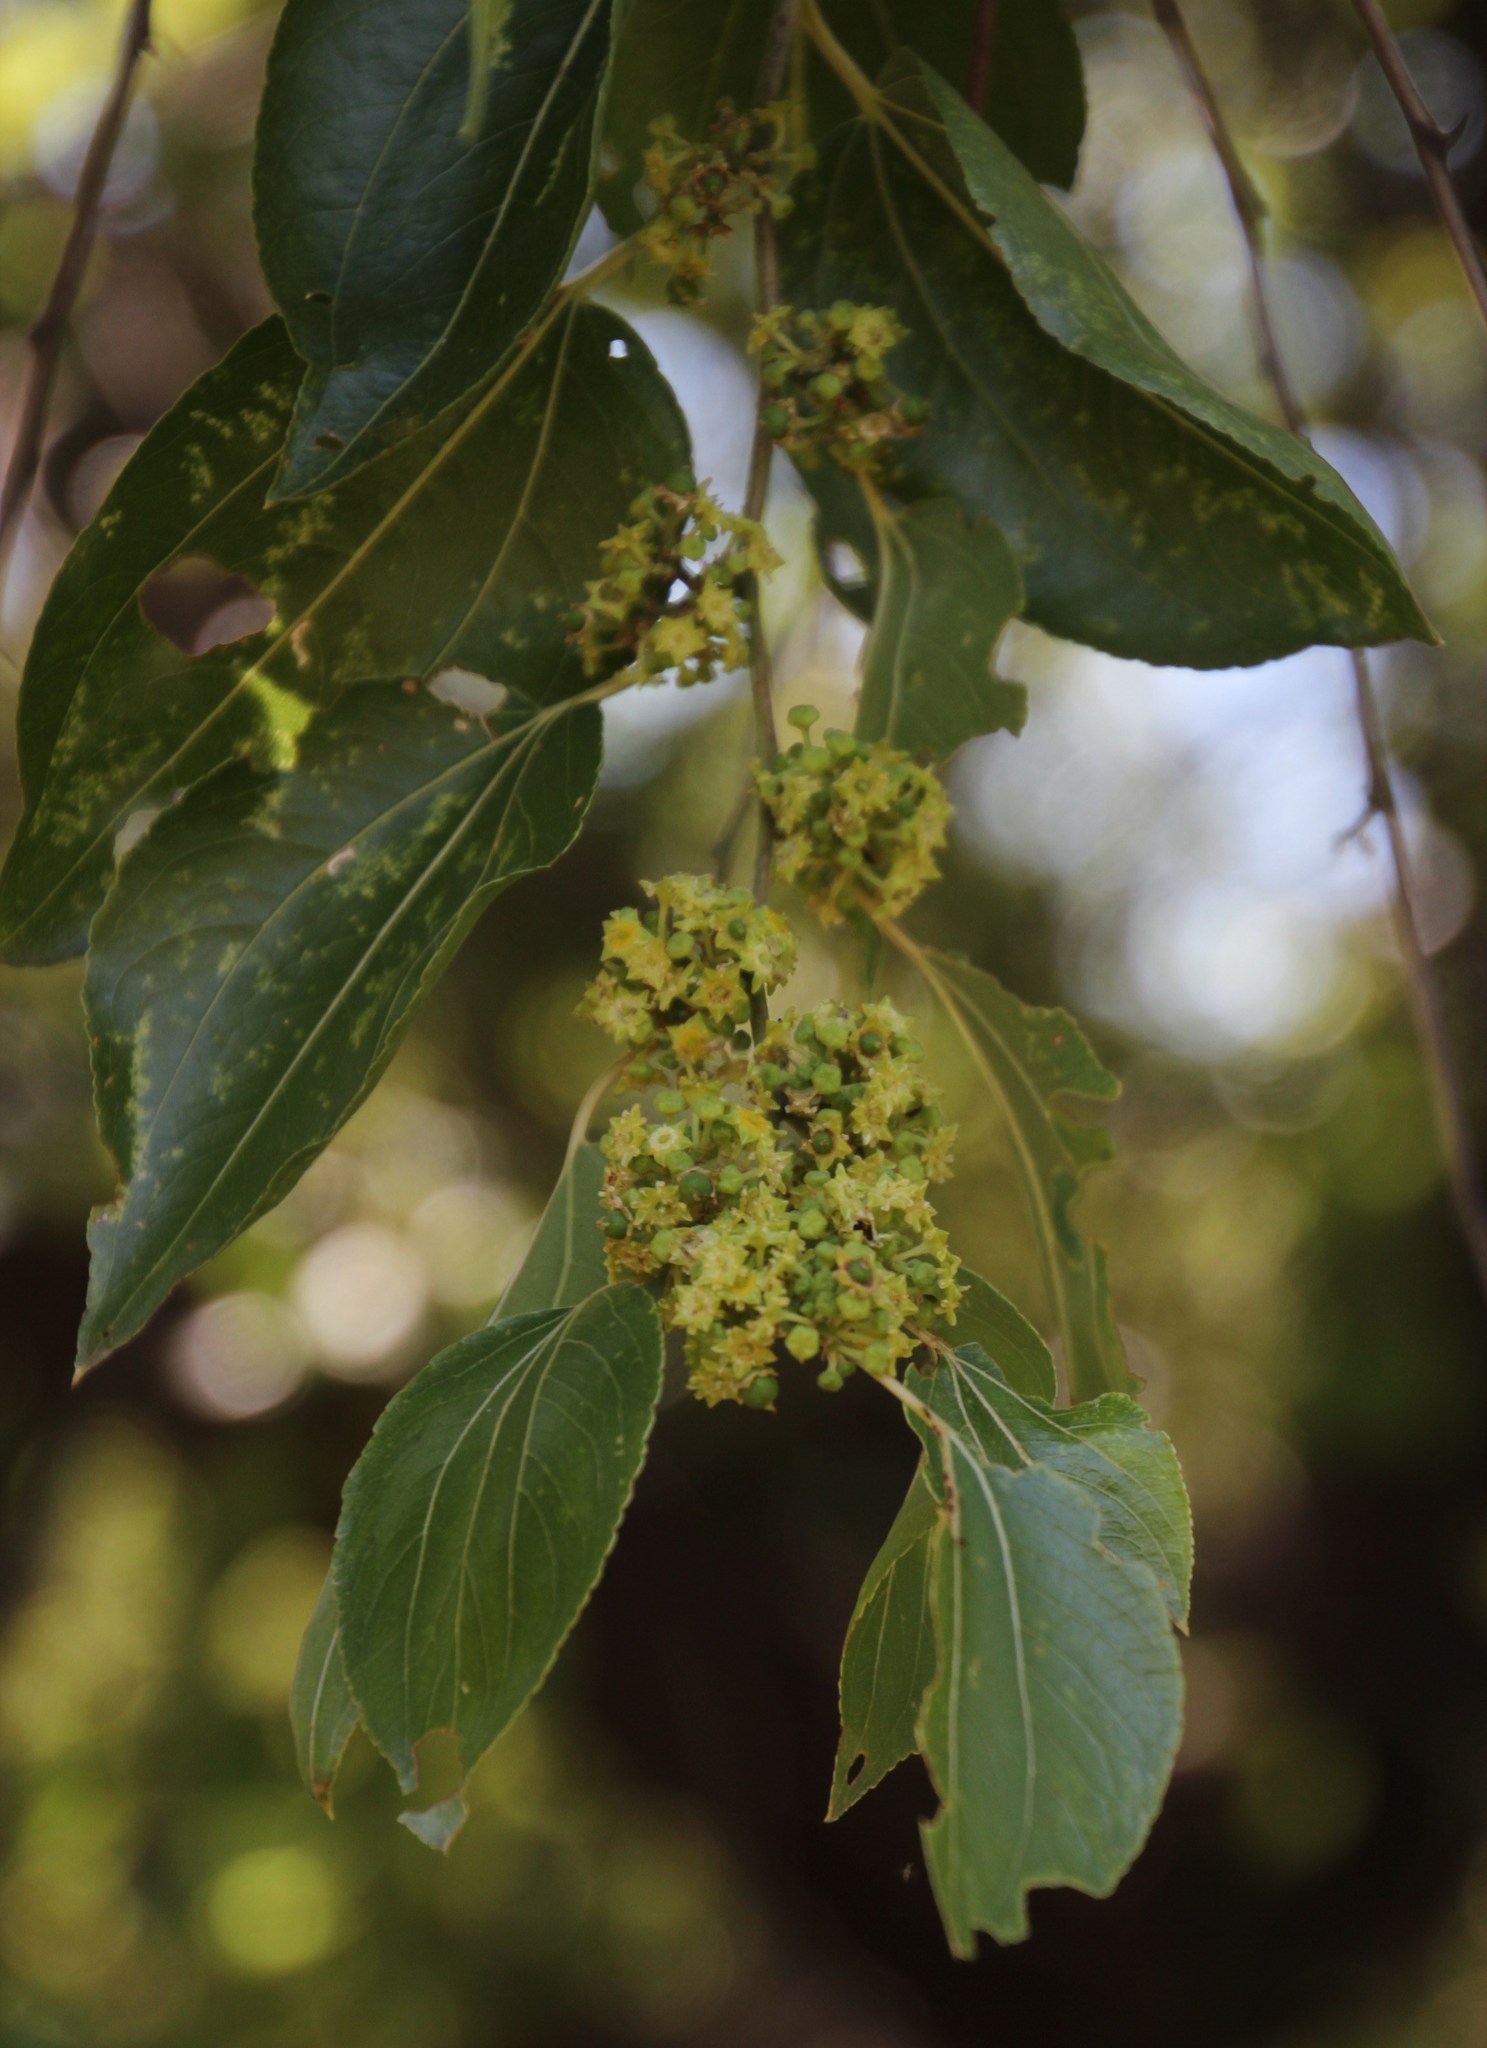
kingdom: Plantae
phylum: Tracheophyta
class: Magnoliopsida
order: Rosales
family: Rhamnaceae
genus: Ziziphus
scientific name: Ziziphus mucronata
